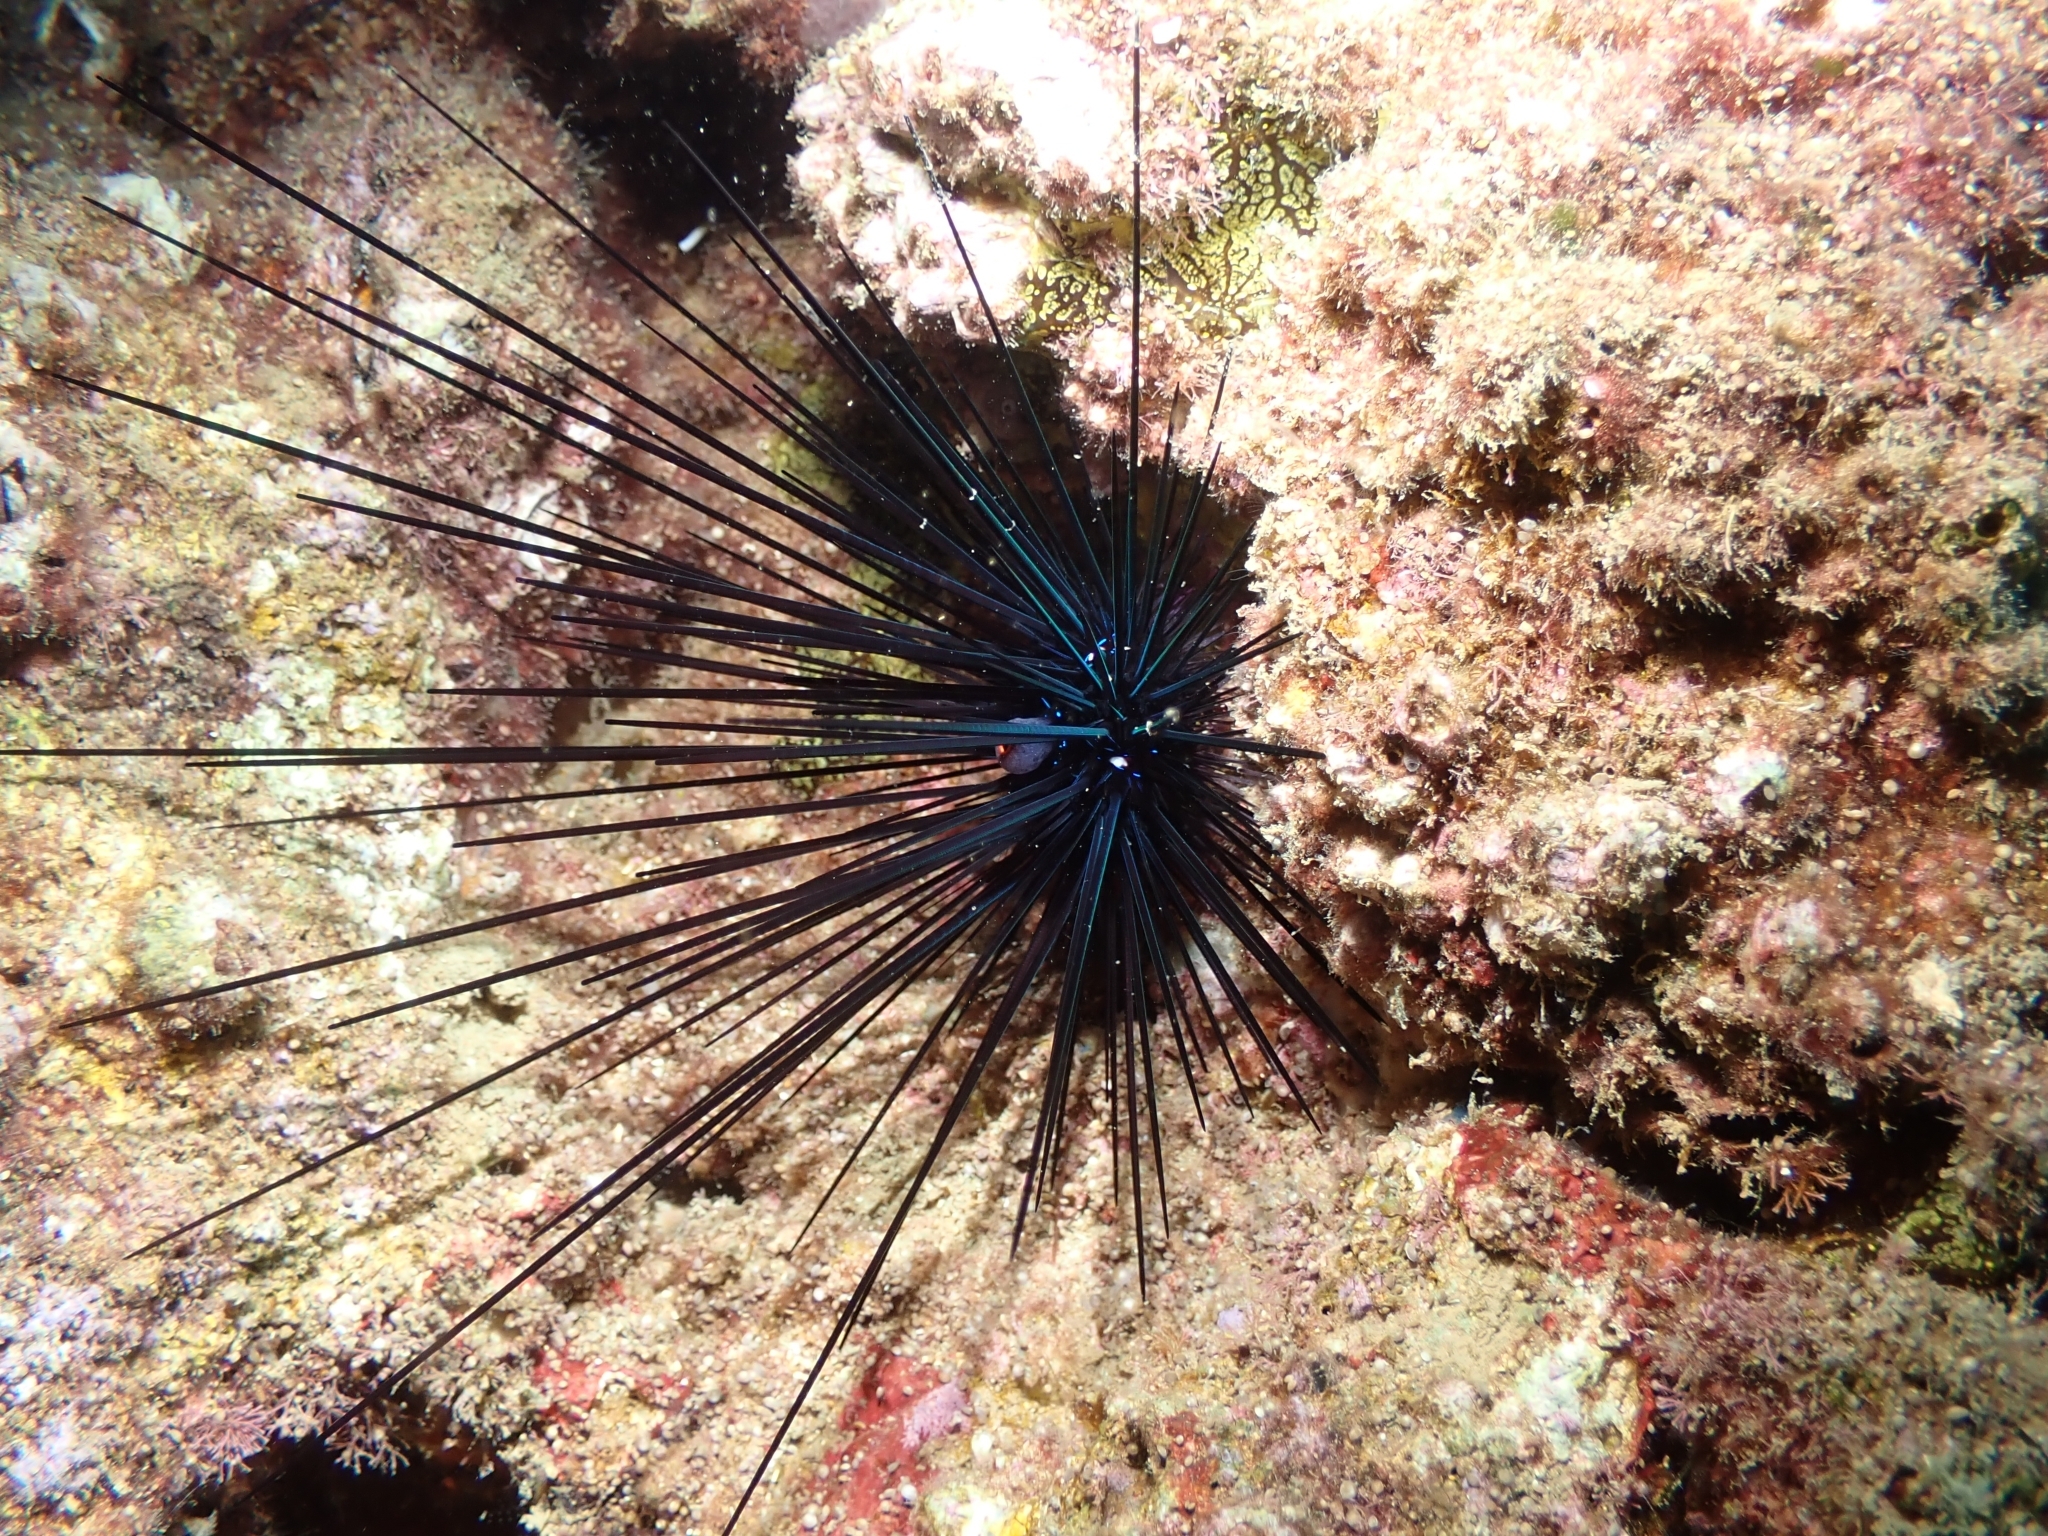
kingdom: Animalia
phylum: Echinodermata
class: Echinoidea
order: Diadematoida
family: Diadematidae
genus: Diadema
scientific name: Diadema setosum
